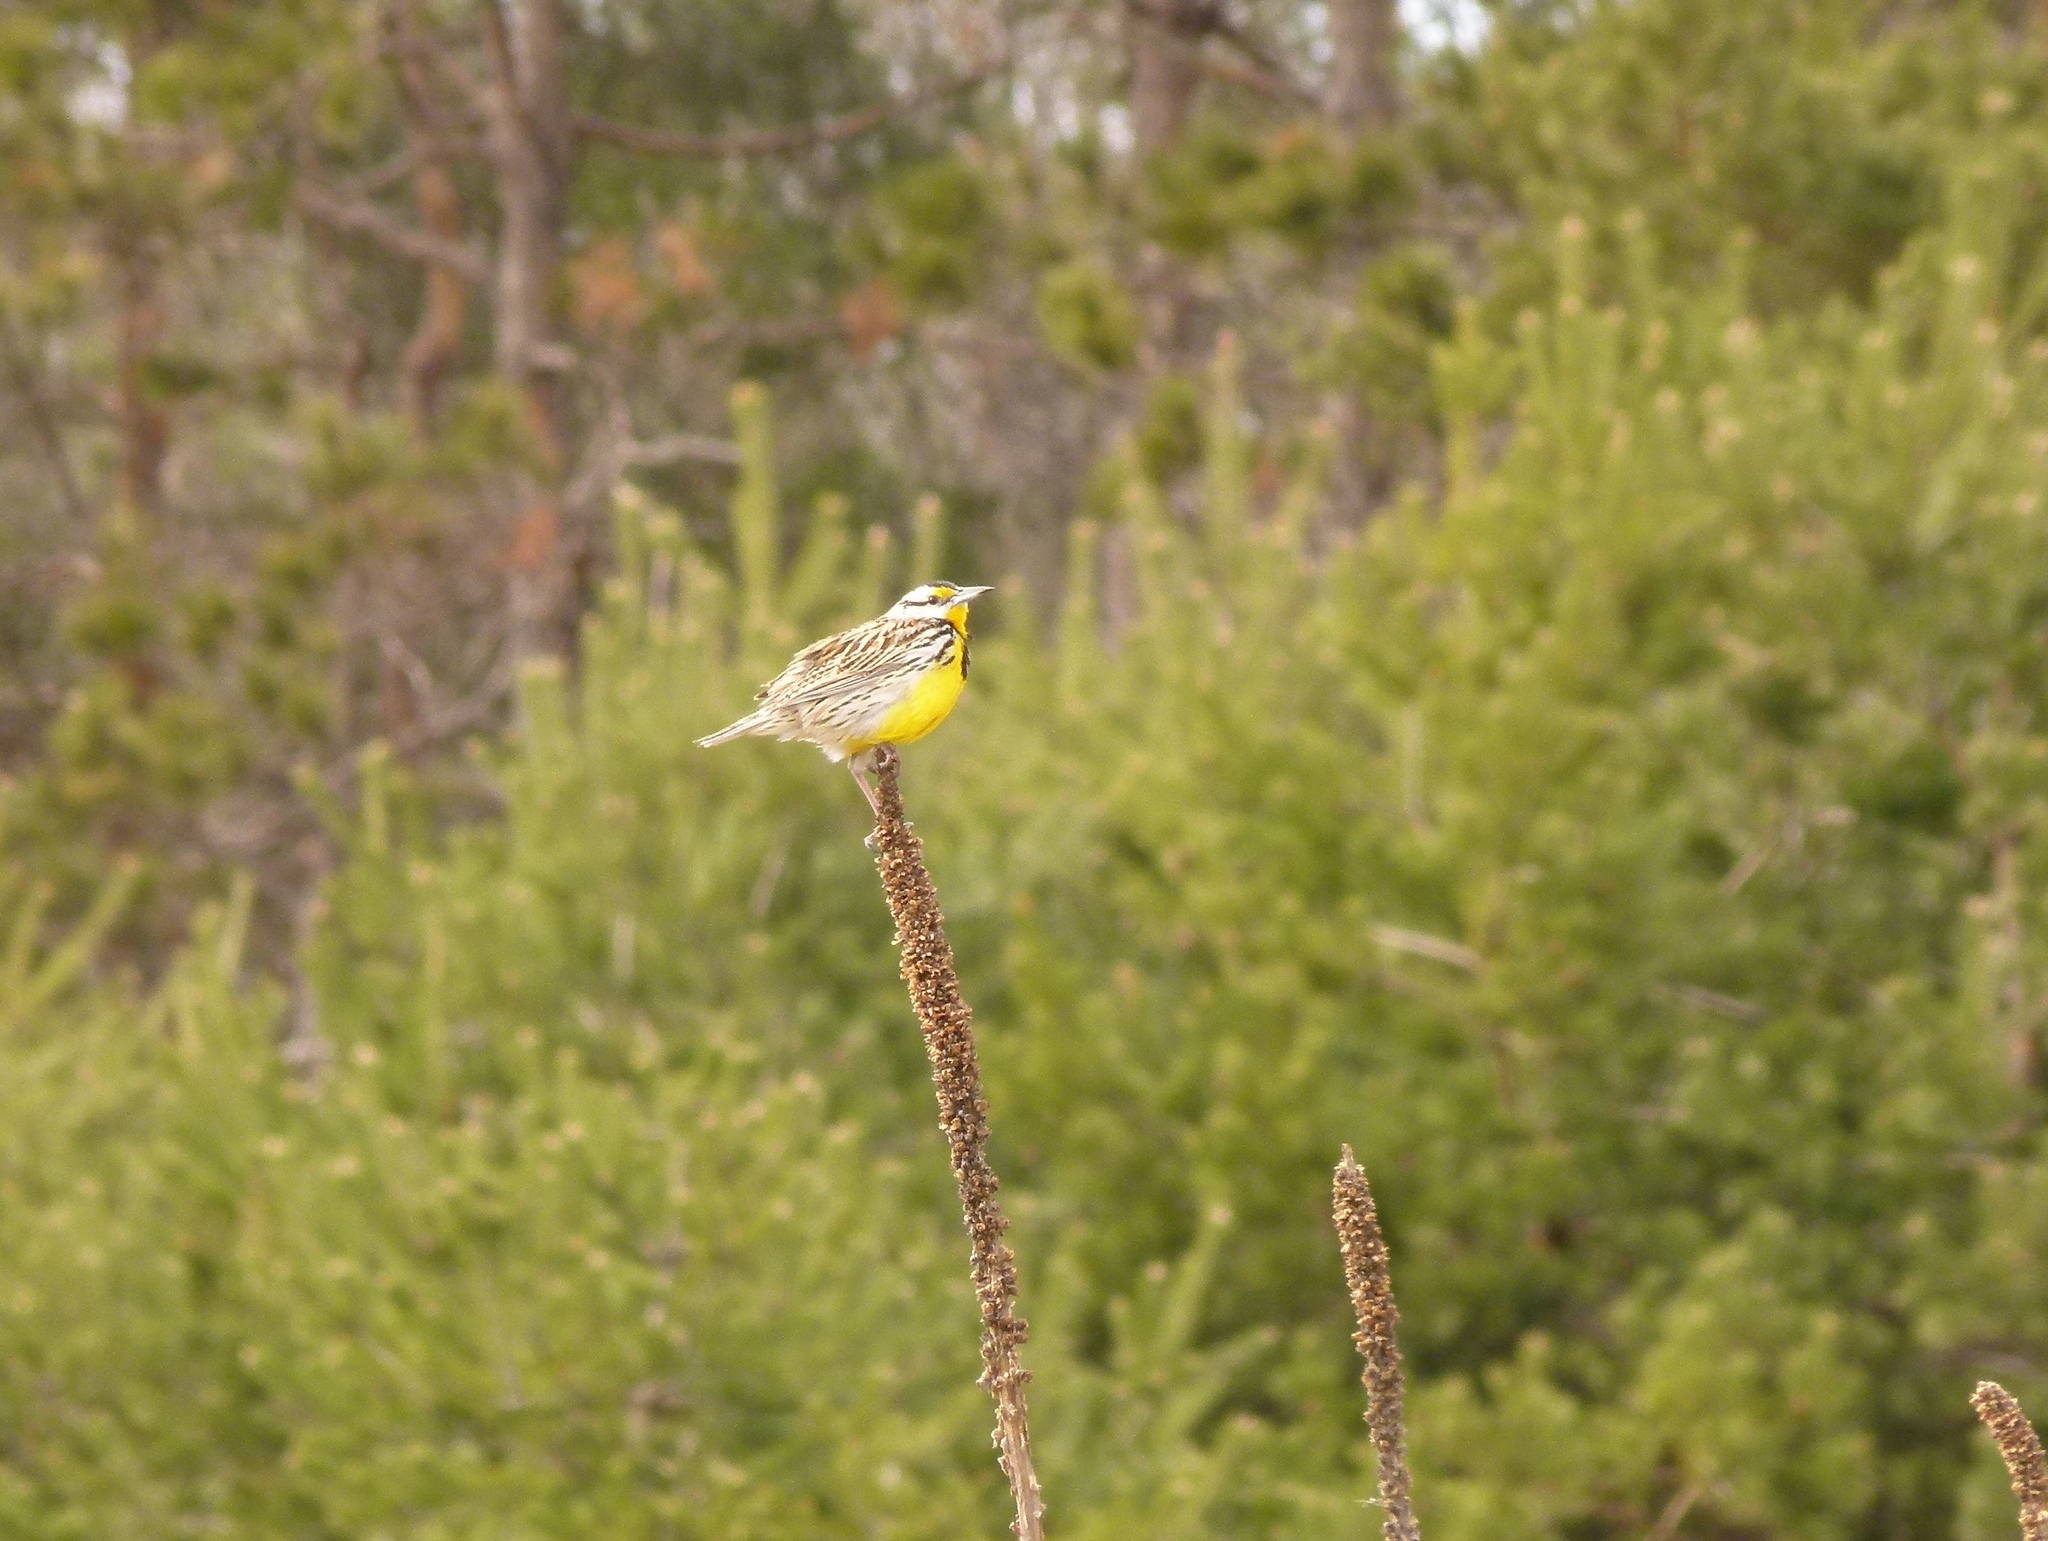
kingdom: Animalia
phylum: Chordata
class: Aves
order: Passeriformes
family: Icteridae
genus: Sturnella
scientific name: Sturnella magna
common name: Eastern meadowlark
